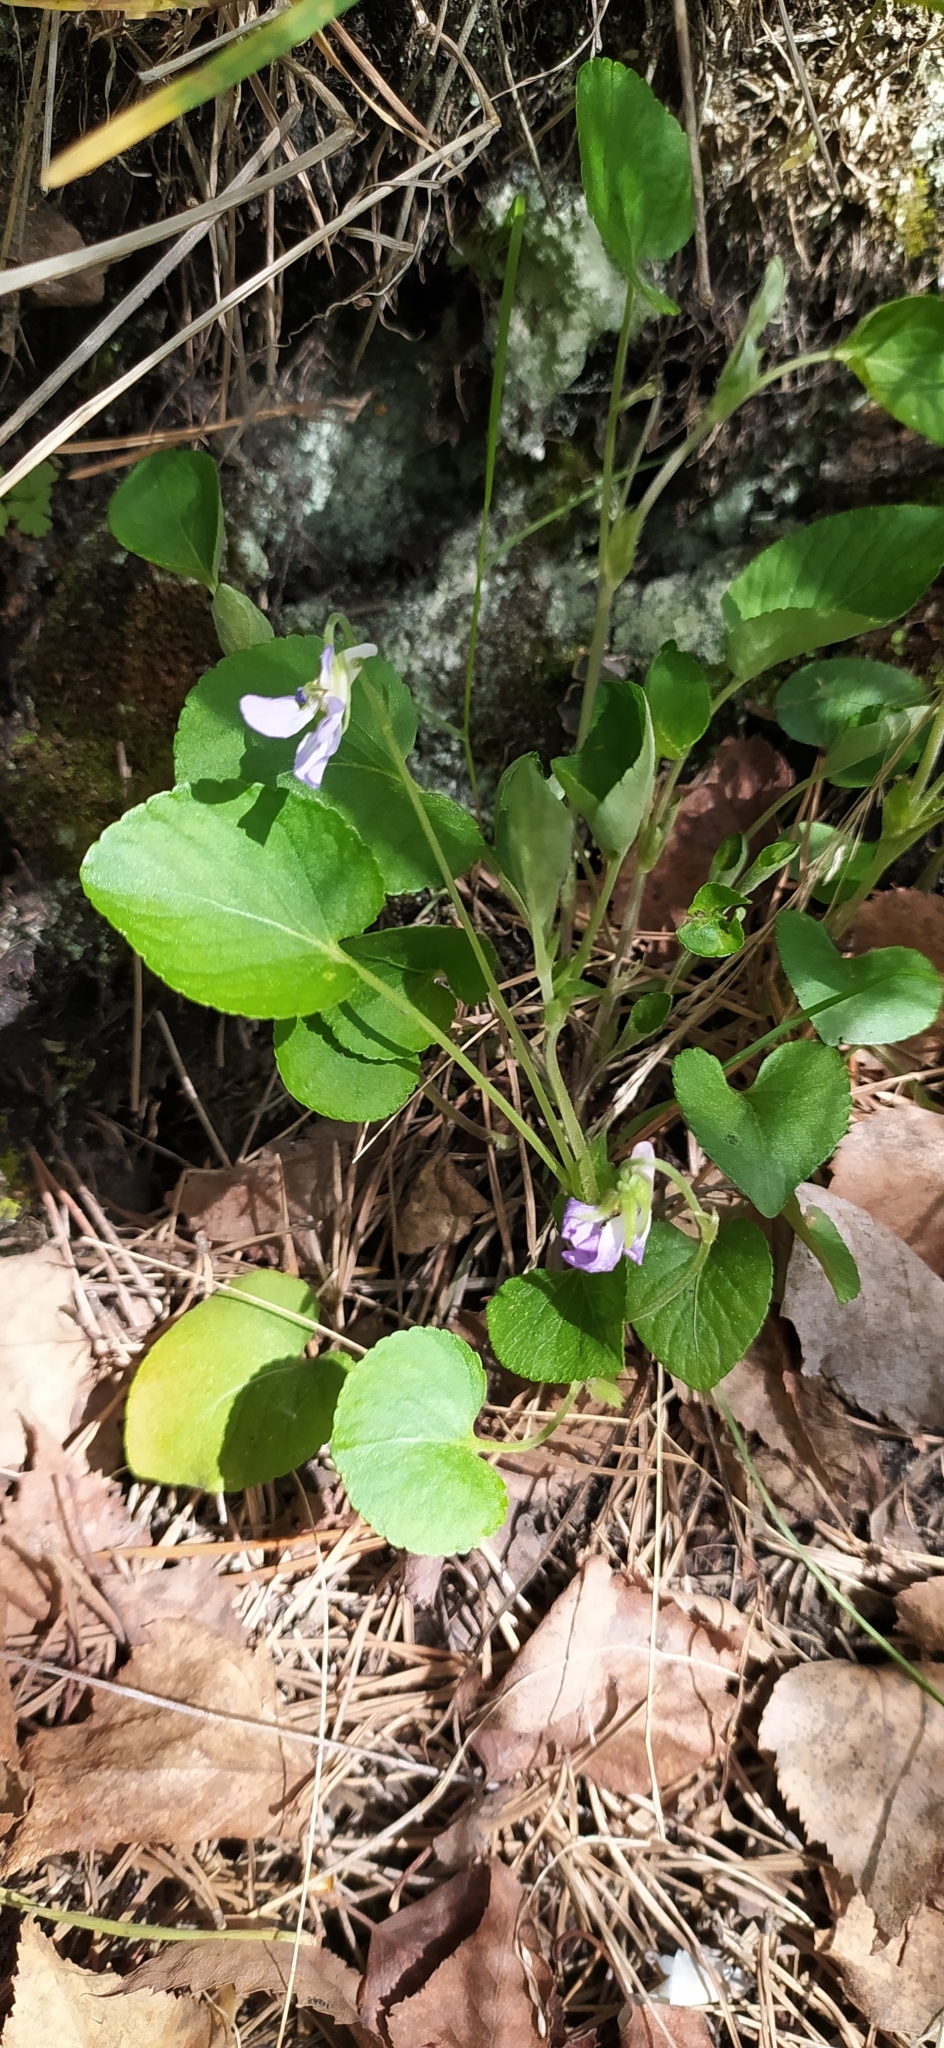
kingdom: Plantae
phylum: Tracheophyta
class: Magnoliopsida
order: Malpighiales
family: Violaceae
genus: Viola
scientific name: Viola rupestris
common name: Teesdale violet
